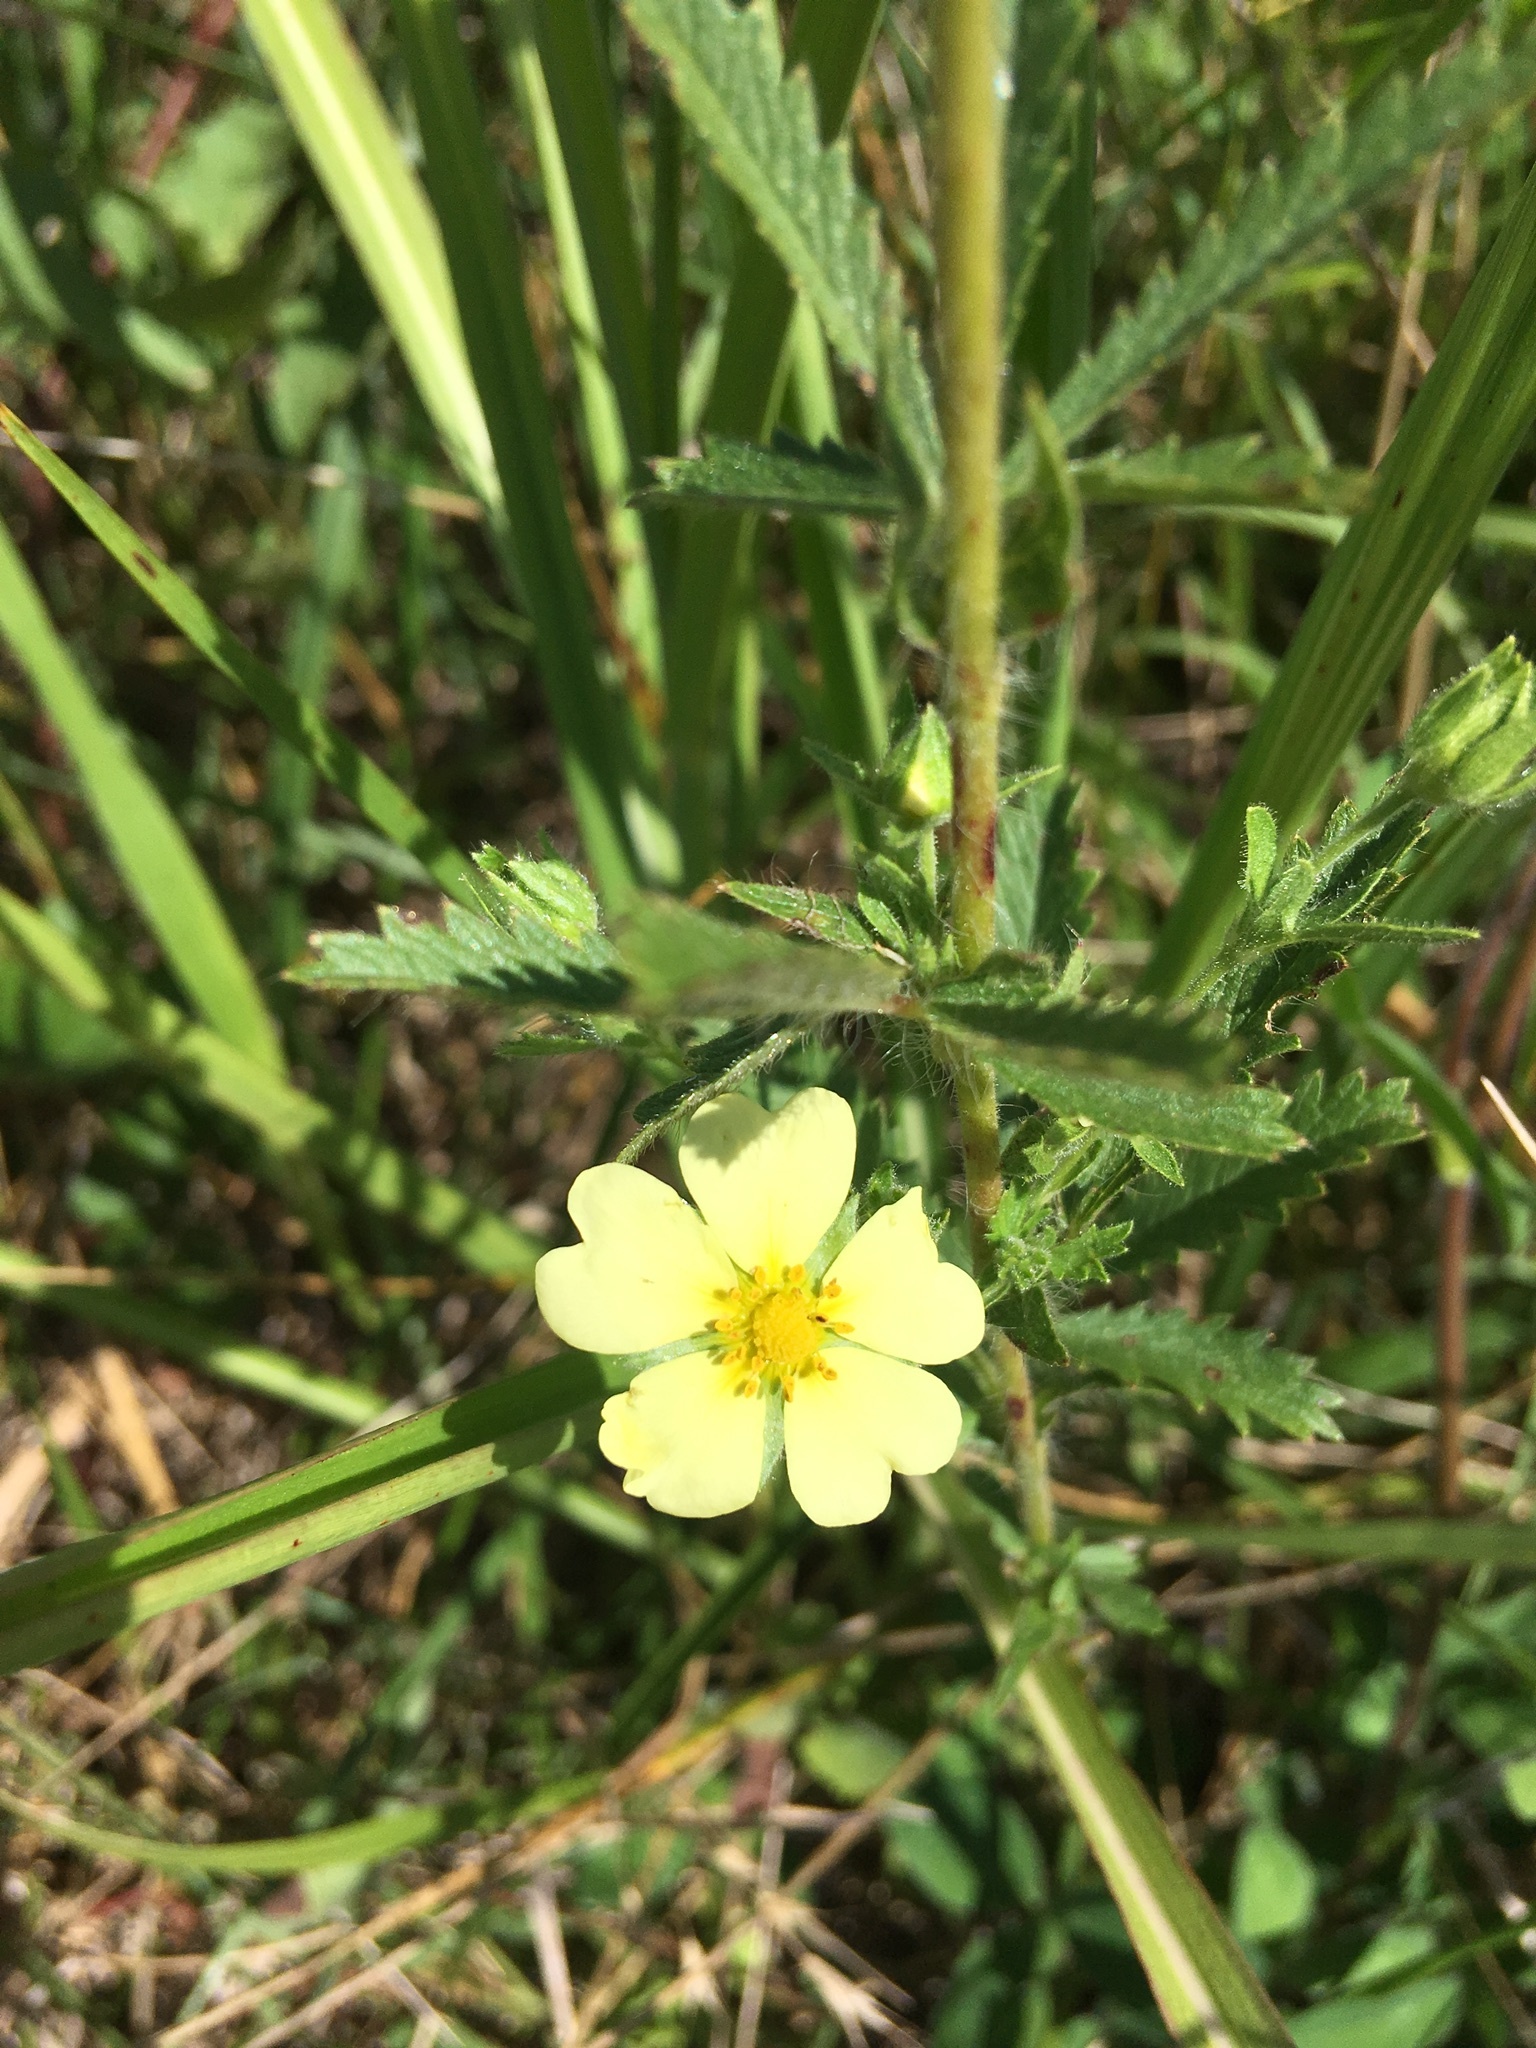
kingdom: Plantae
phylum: Tracheophyta
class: Magnoliopsida
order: Rosales
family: Rosaceae
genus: Potentilla
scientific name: Potentilla recta
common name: Sulphur cinquefoil
